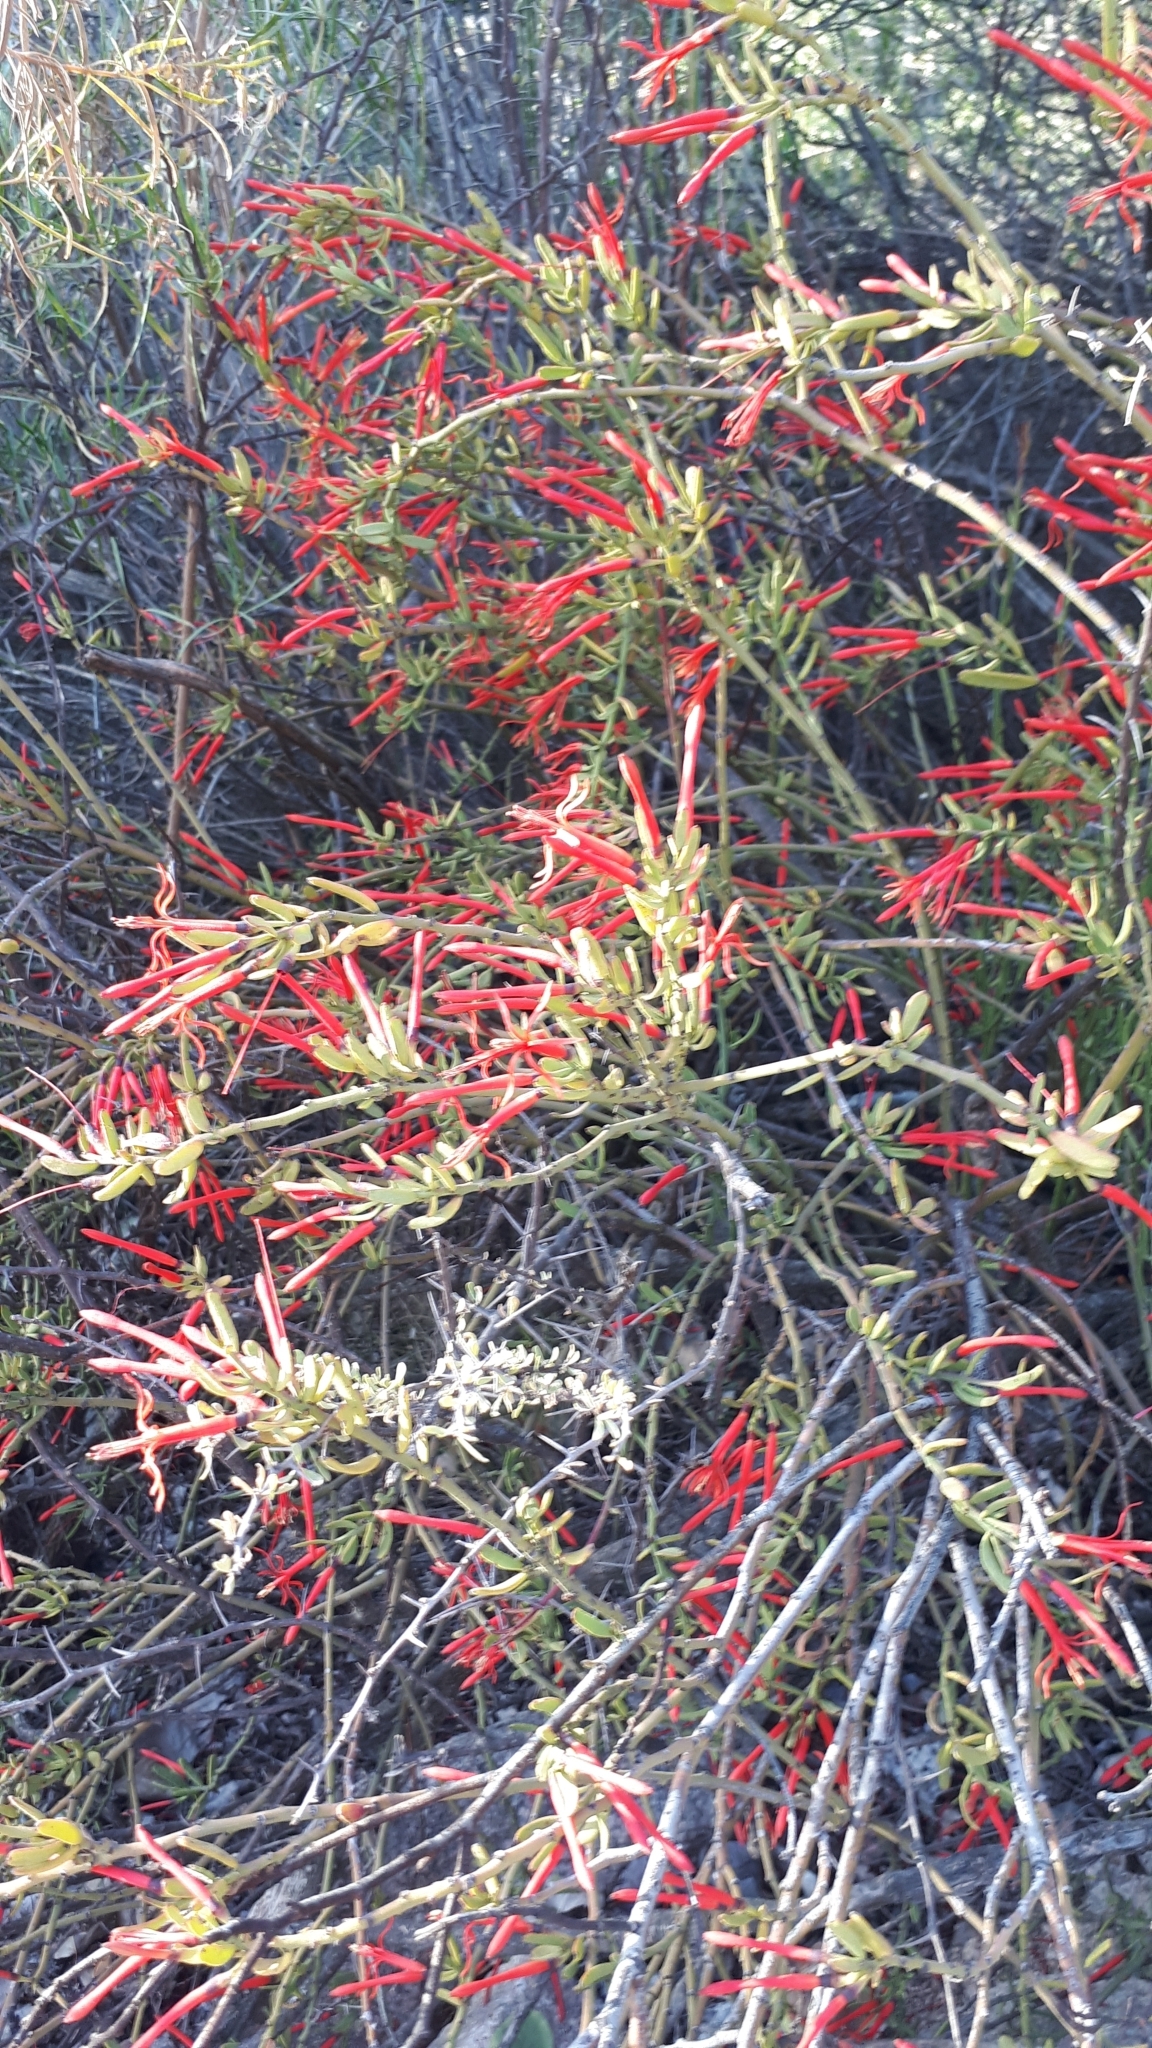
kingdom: Plantae
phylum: Tracheophyta
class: Magnoliopsida
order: Santalales
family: Loranthaceae
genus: Ligaria
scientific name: Ligaria cuneifolia
